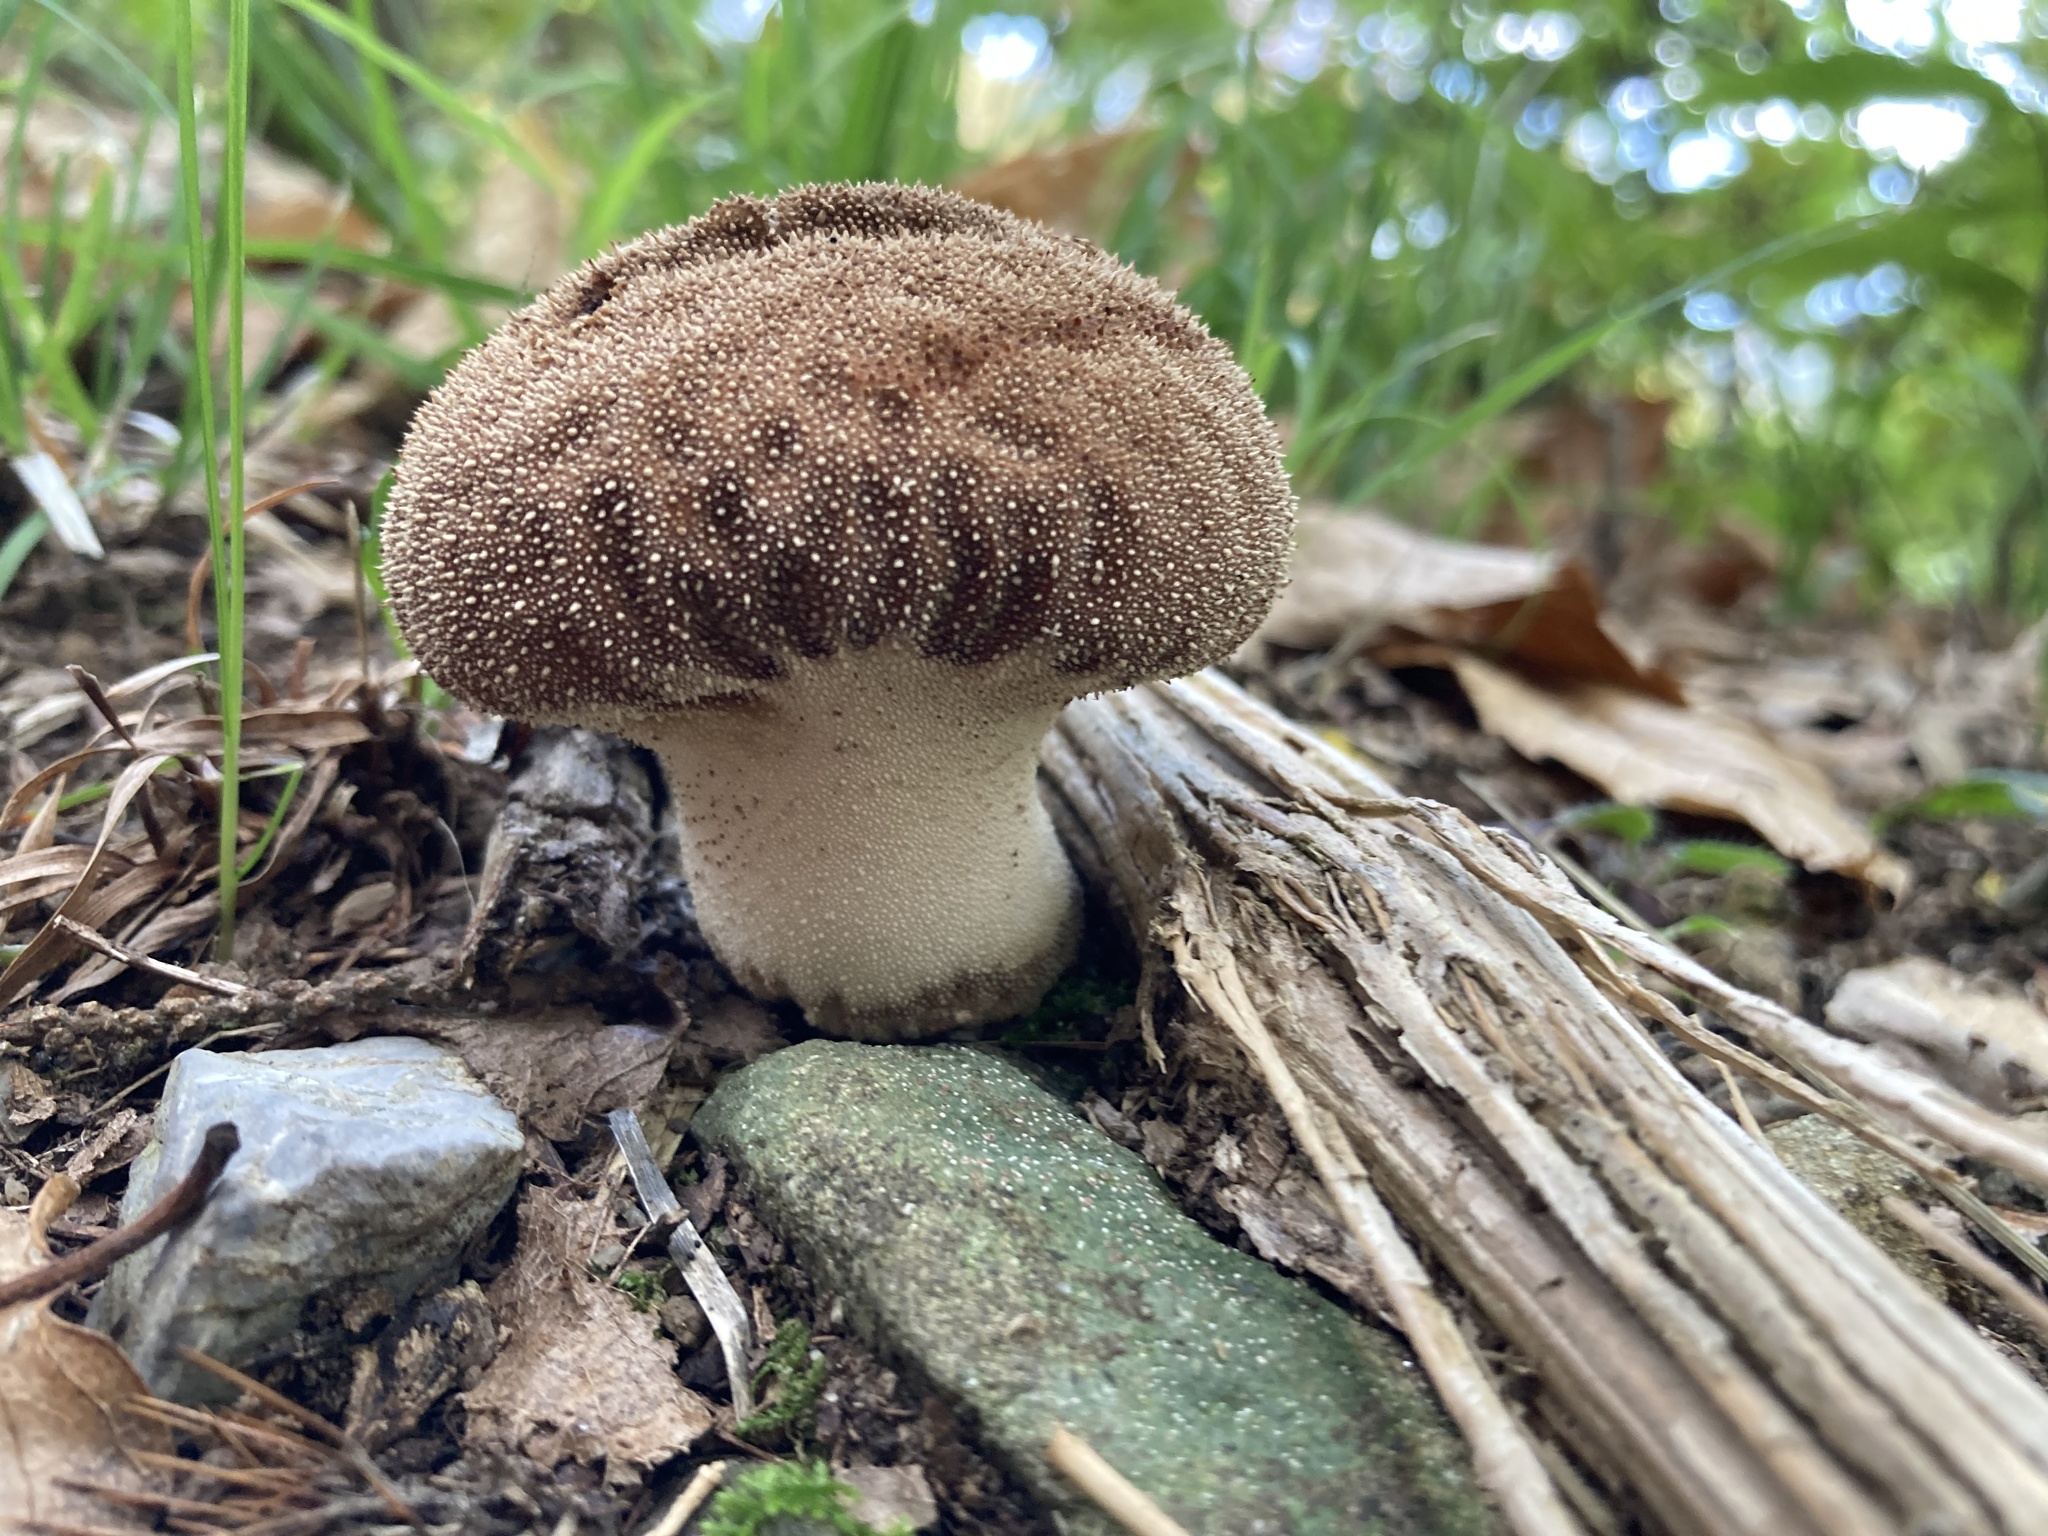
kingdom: Fungi
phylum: Basidiomycota
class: Agaricomycetes
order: Agaricales
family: Lycoperdaceae
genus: Lycoperdon
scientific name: Lycoperdon perlatum
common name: Common puffball
